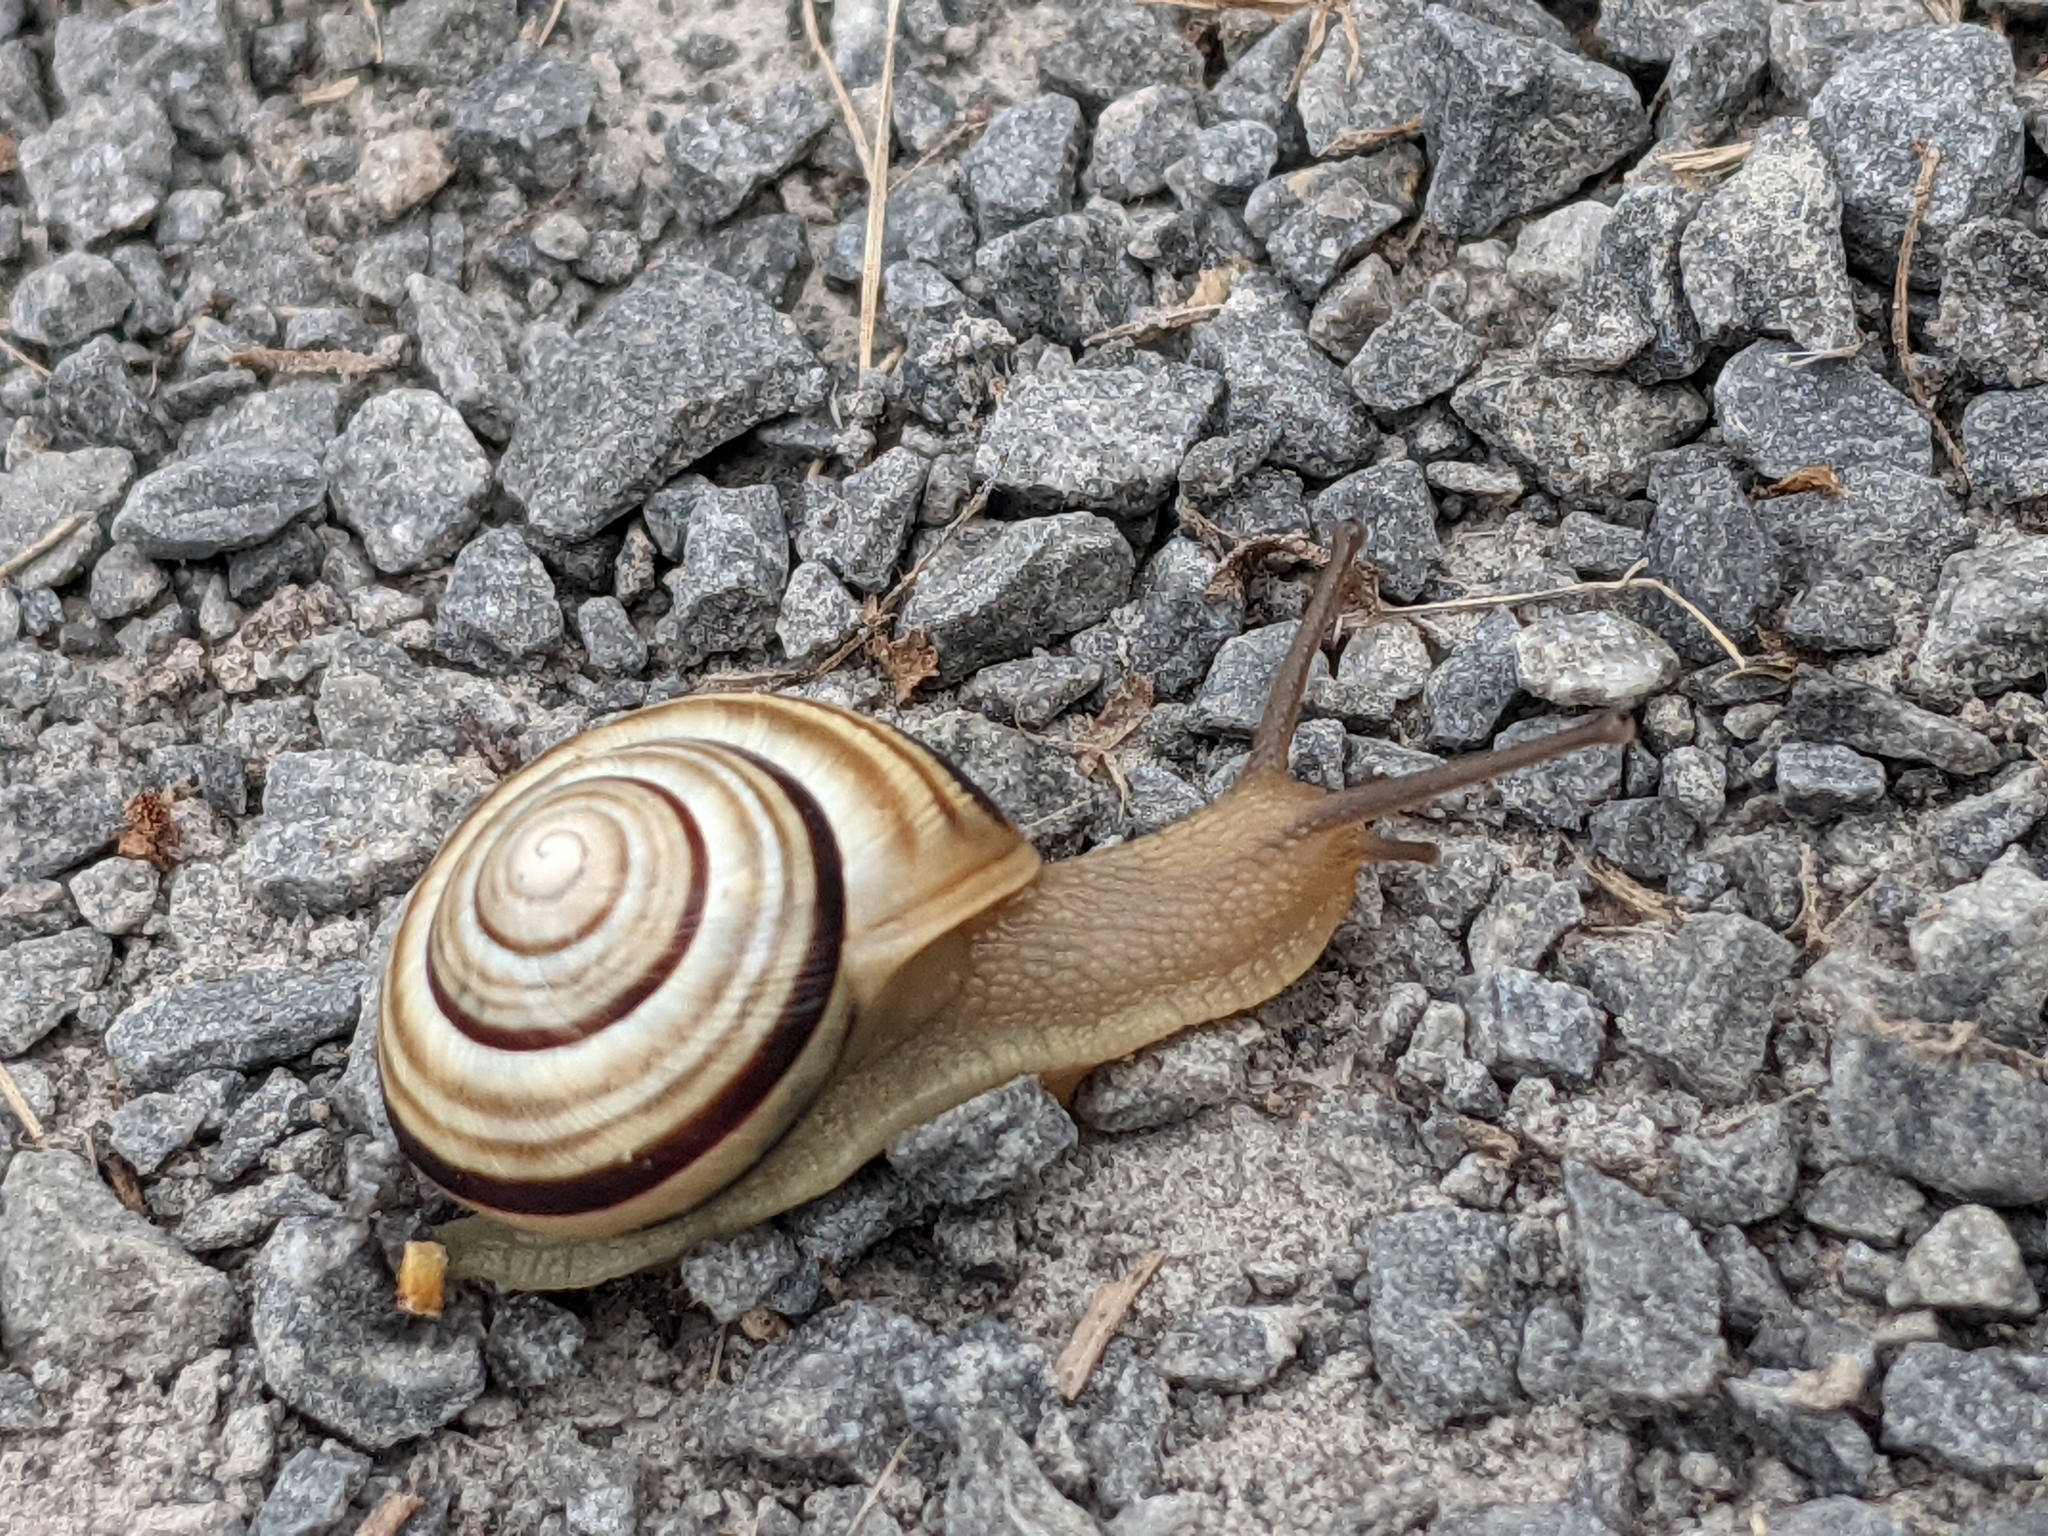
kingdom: Animalia
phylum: Mollusca
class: Gastropoda
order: Stylommatophora
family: Helicidae
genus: Caucasotachea
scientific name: Caucasotachea vindobonensis
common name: European helicid land snail
